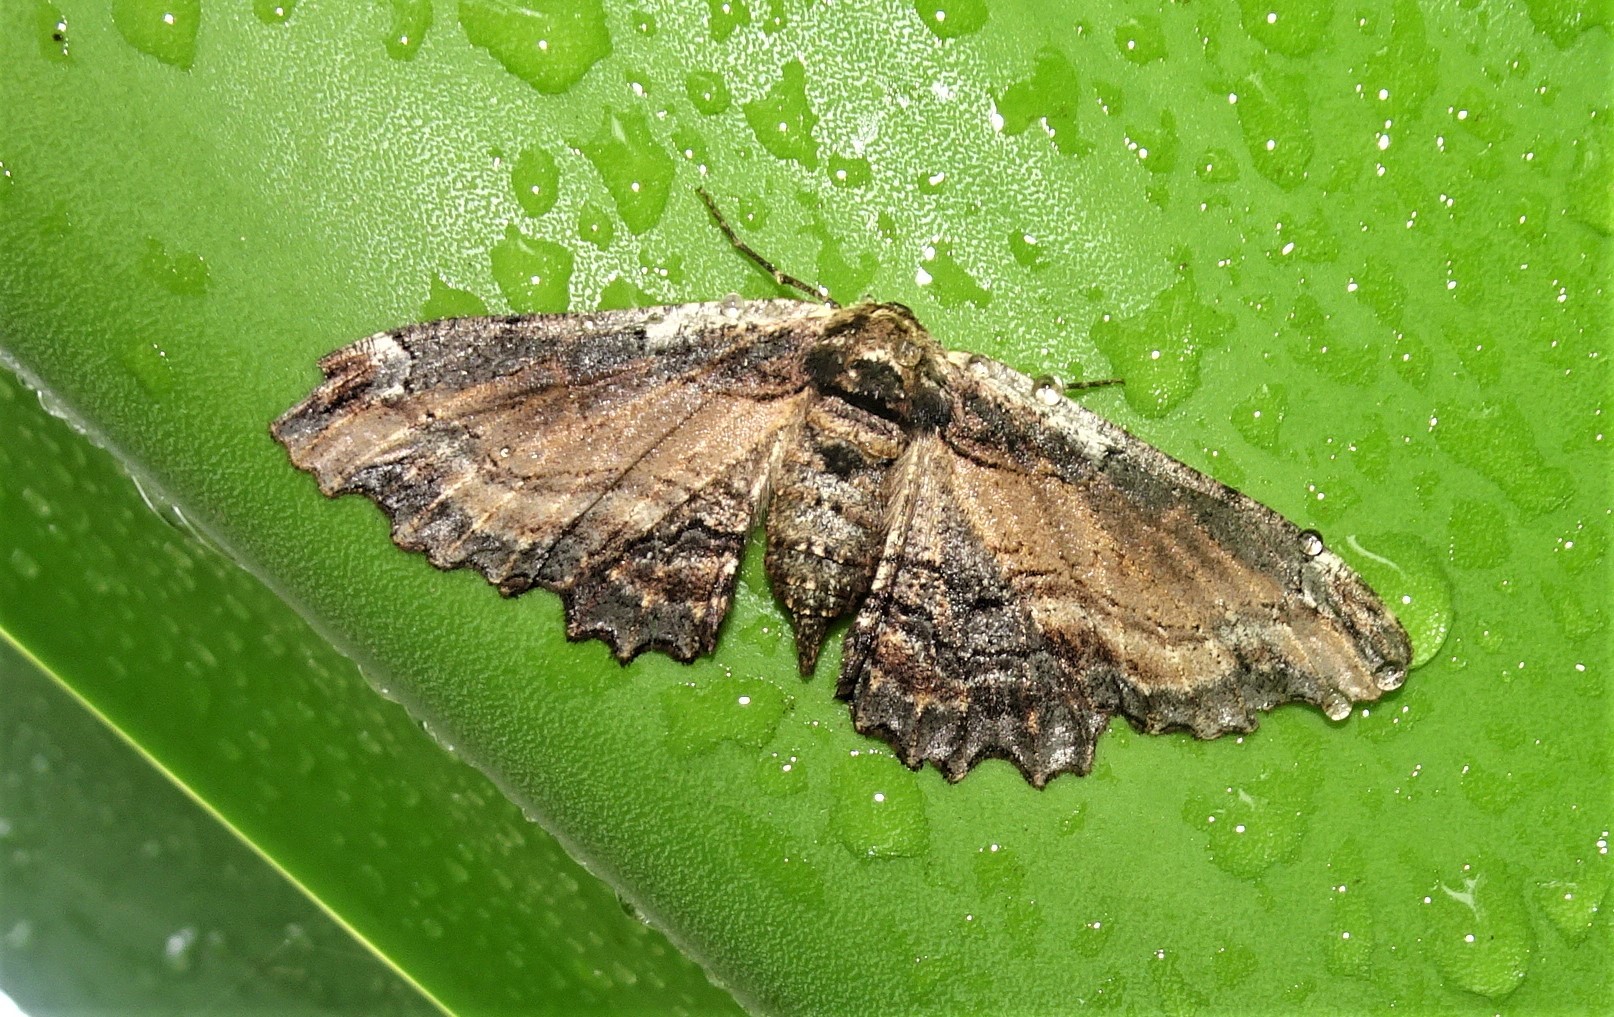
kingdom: Animalia
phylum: Arthropoda
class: Insecta
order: Lepidoptera
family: Geometridae
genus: Pholodes
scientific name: Pholodes sinistraria
